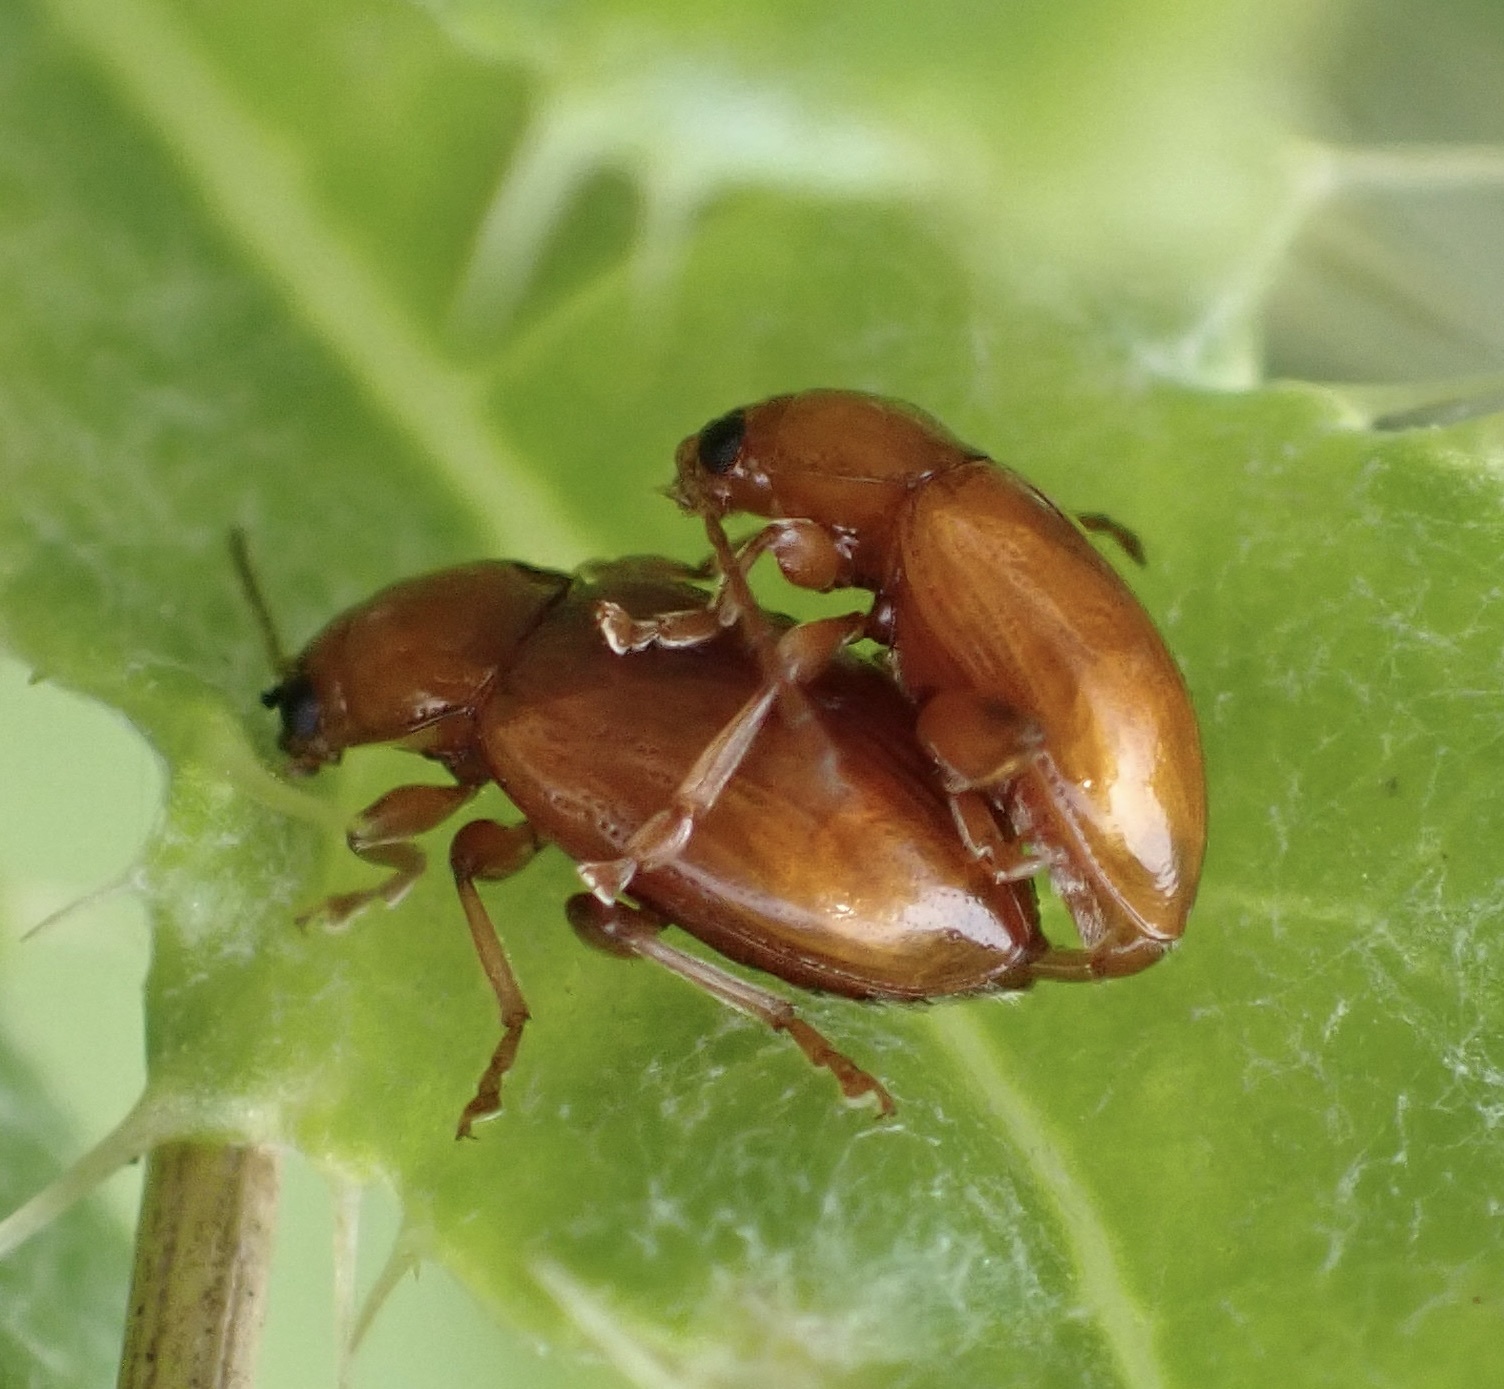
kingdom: Animalia
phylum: Arthropoda
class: Insecta
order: Coleoptera
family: Chrysomelidae
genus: Neocrepidodera
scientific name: Neocrepidodera transversa
